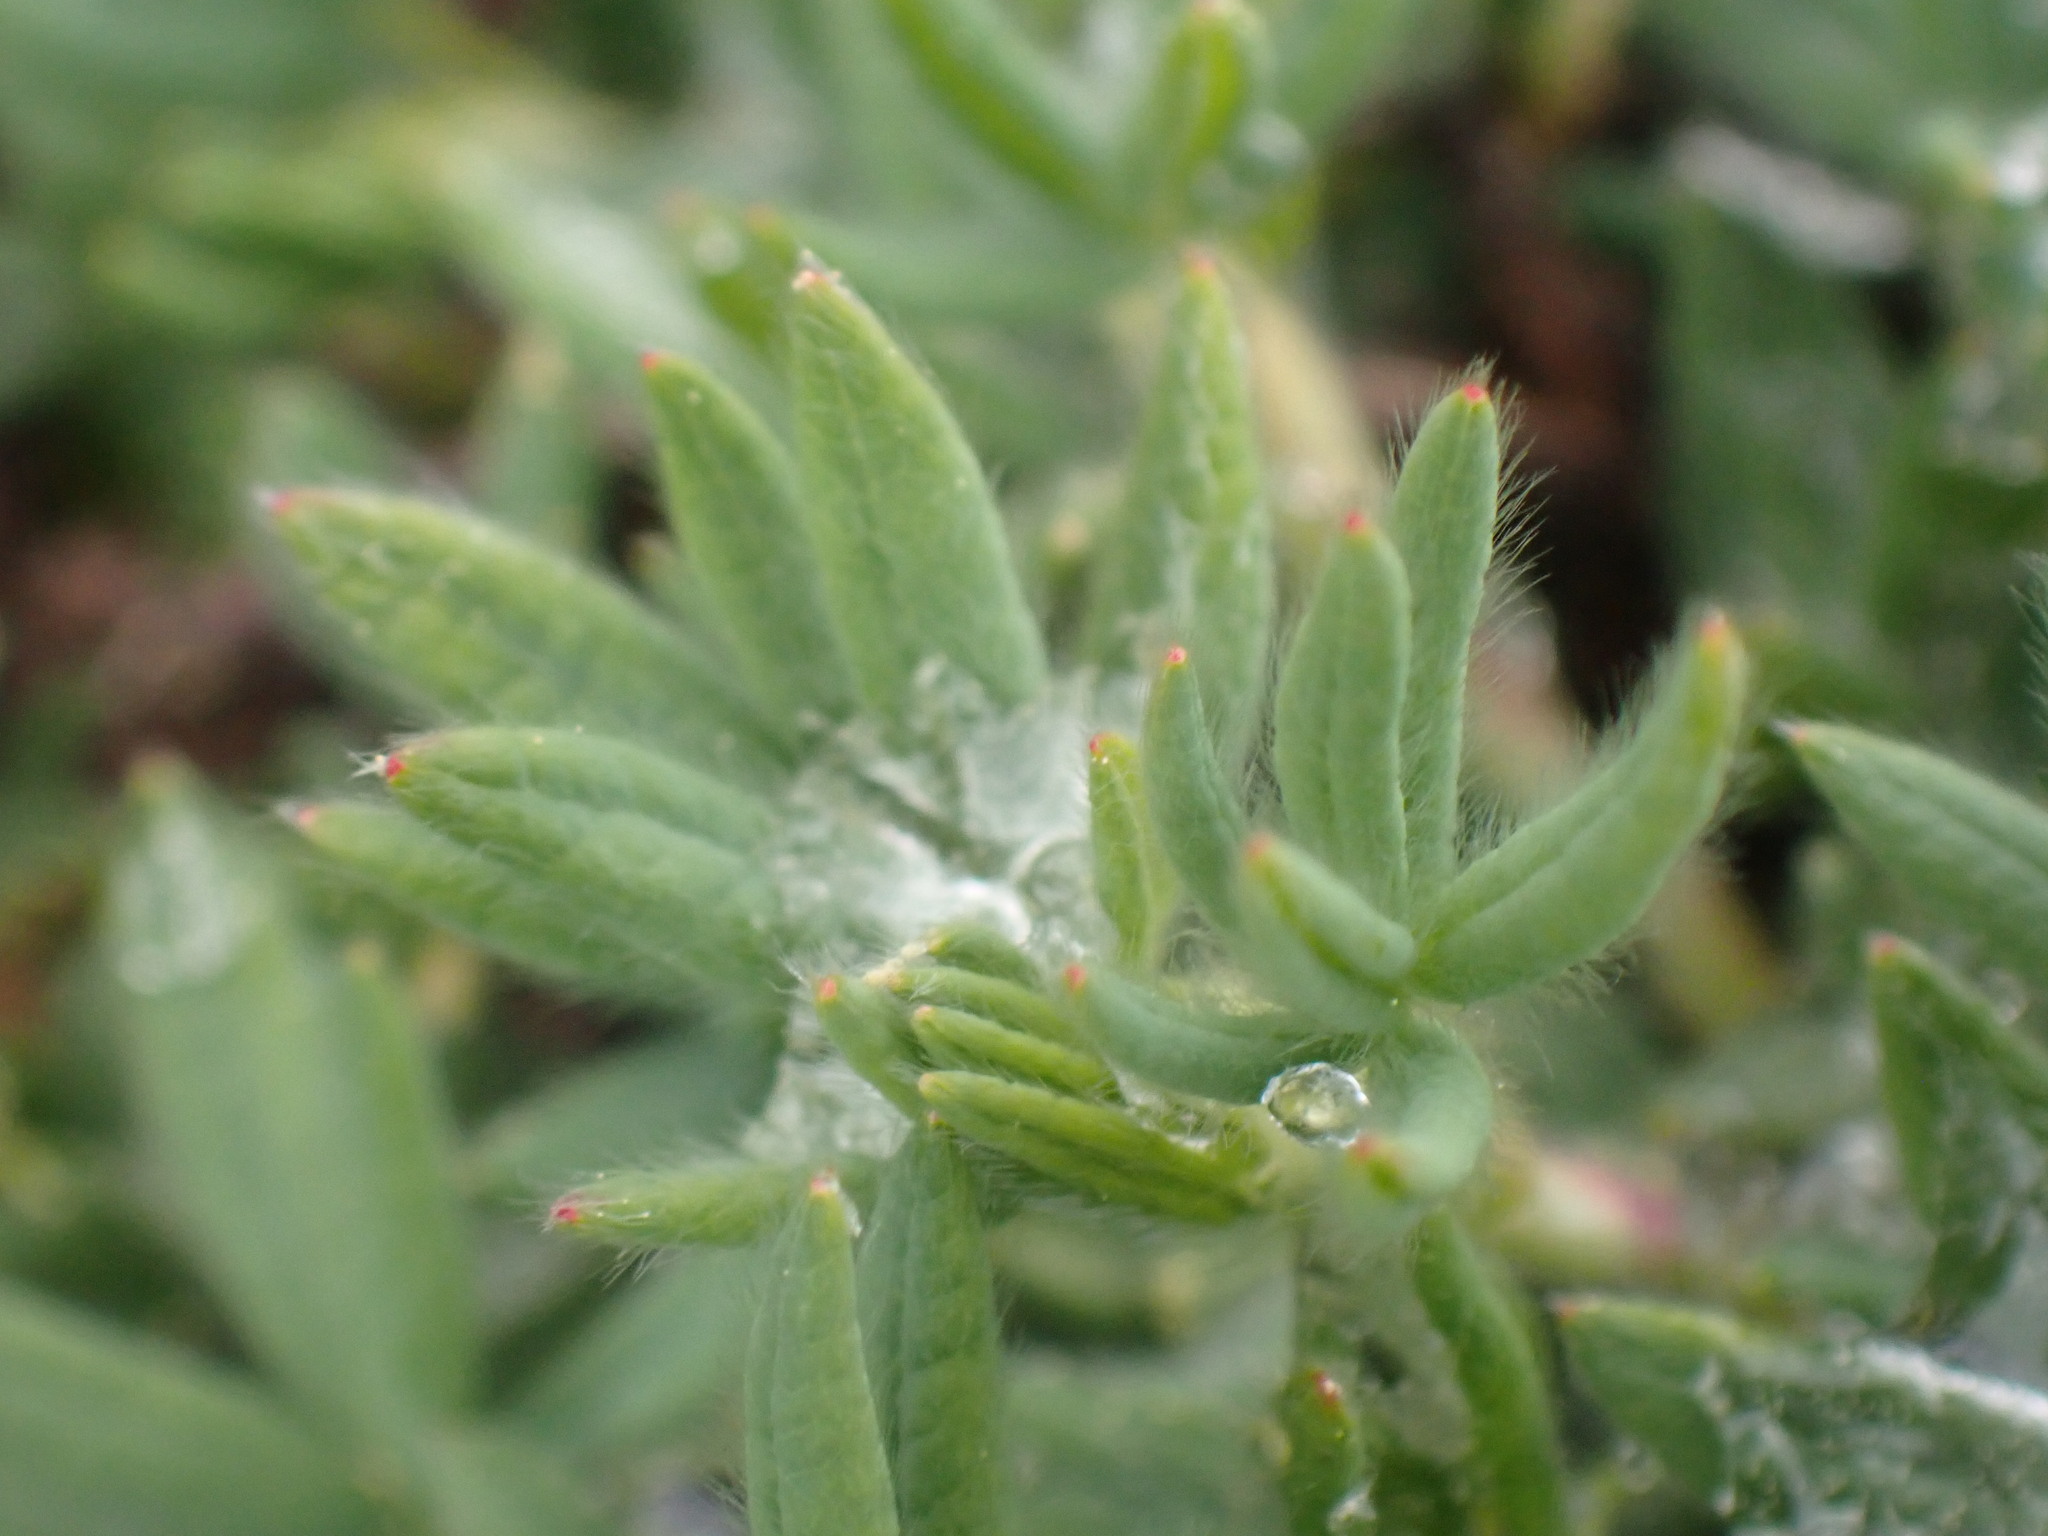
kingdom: Plantae
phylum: Tracheophyta
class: Magnoliopsida
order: Rosales
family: Rosaceae
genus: Dasiphora
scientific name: Dasiphora fruticosa
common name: Shrubby cinquefoil
